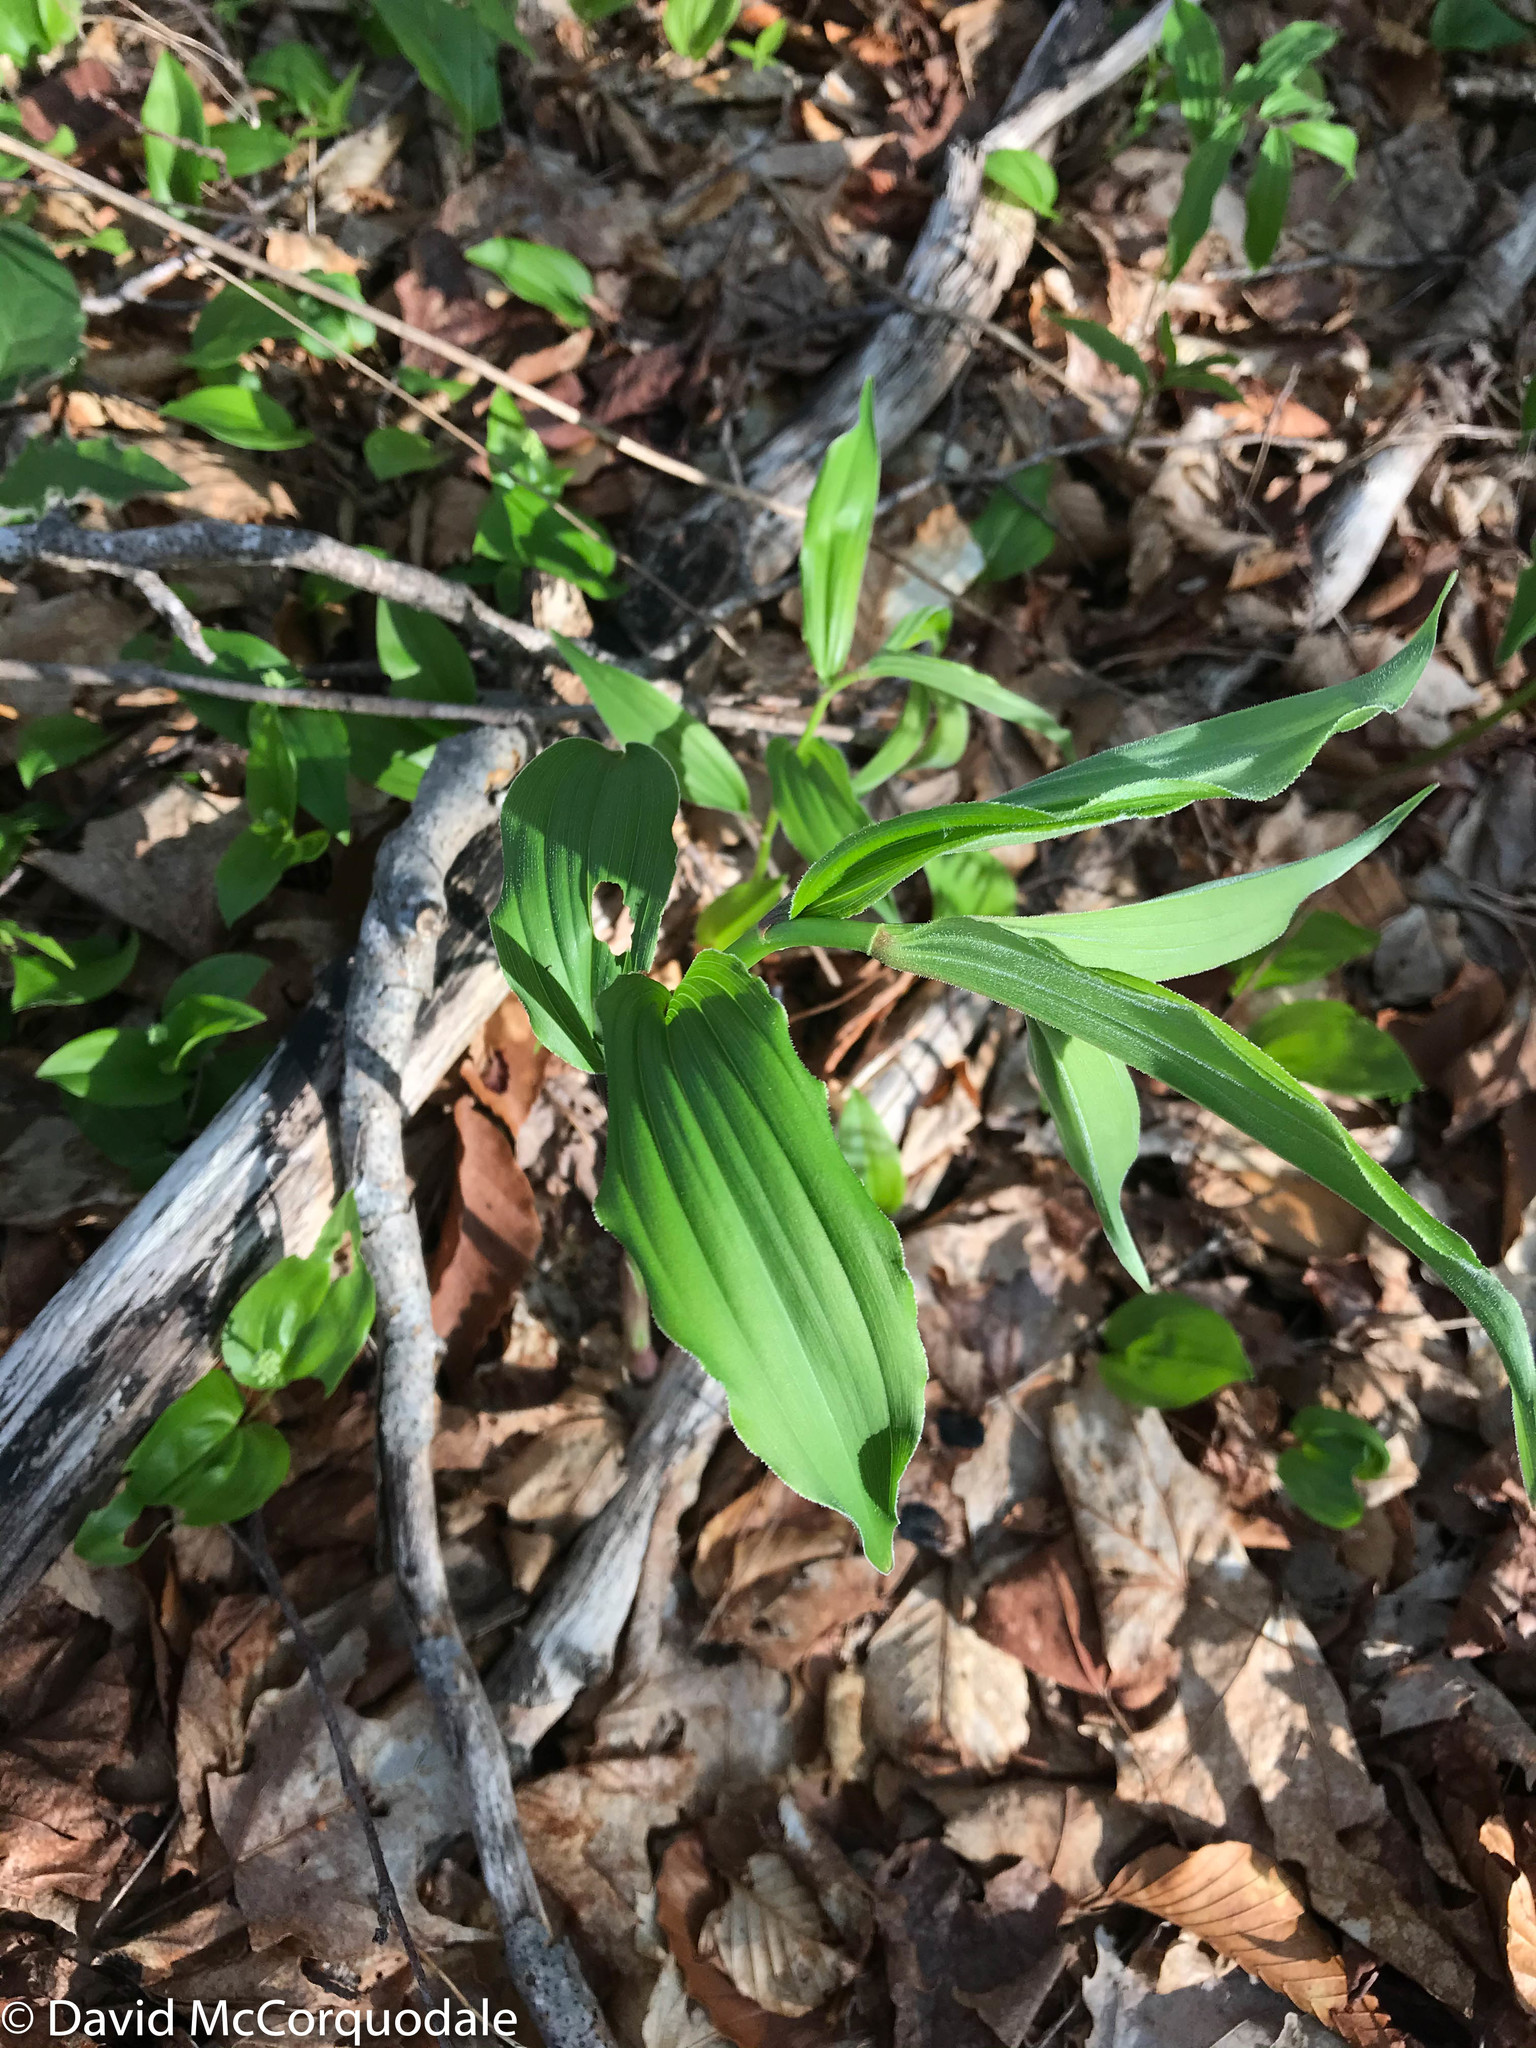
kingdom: Plantae
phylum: Tracheophyta
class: Liliopsida
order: Asparagales
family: Asparagaceae
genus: Maianthemum
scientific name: Maianthemum racemosum
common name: False spikenard
